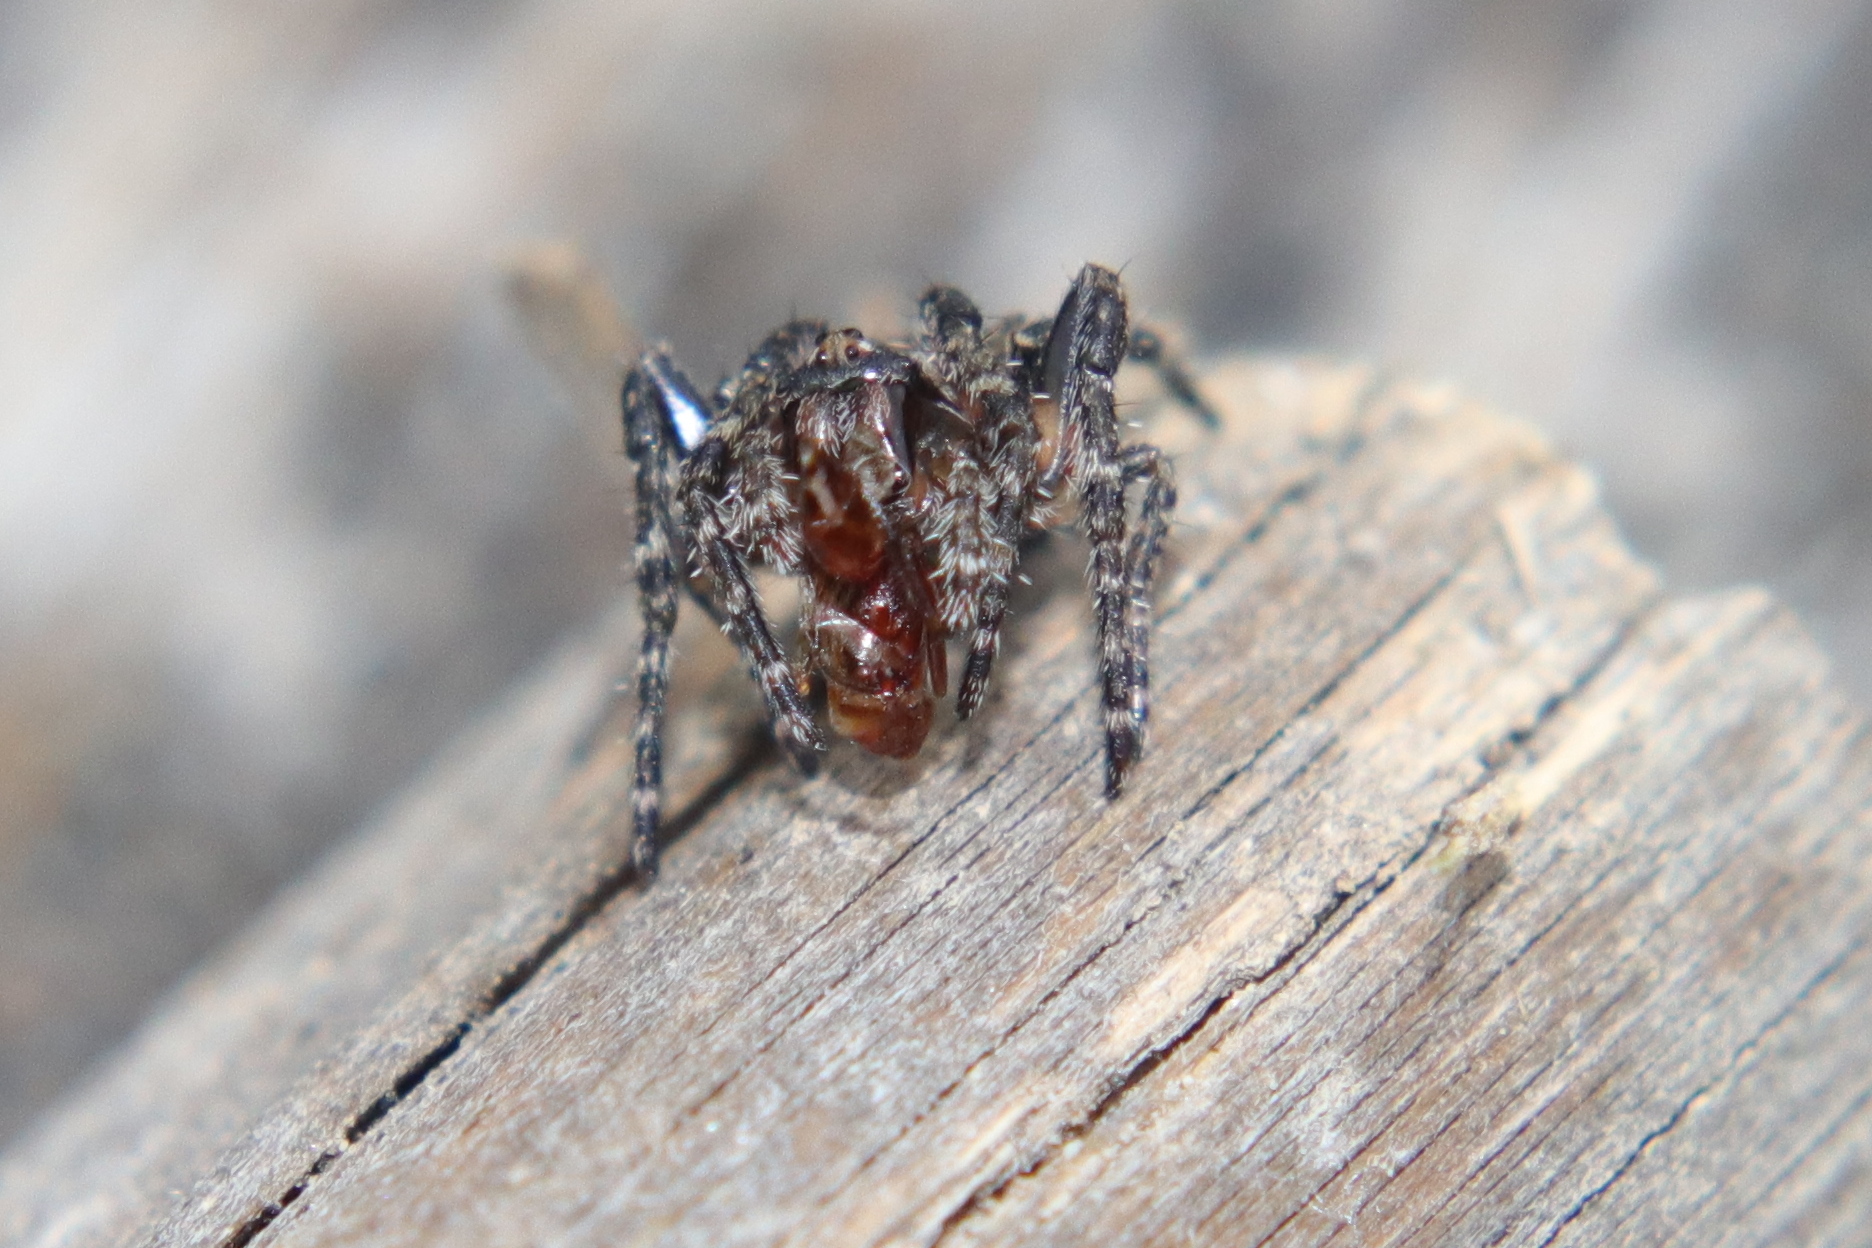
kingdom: Animalia
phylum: Arthropoda
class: Arachnida
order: Araneae
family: Araneidae
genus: Eriophora
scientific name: Eriophora pustulosa
